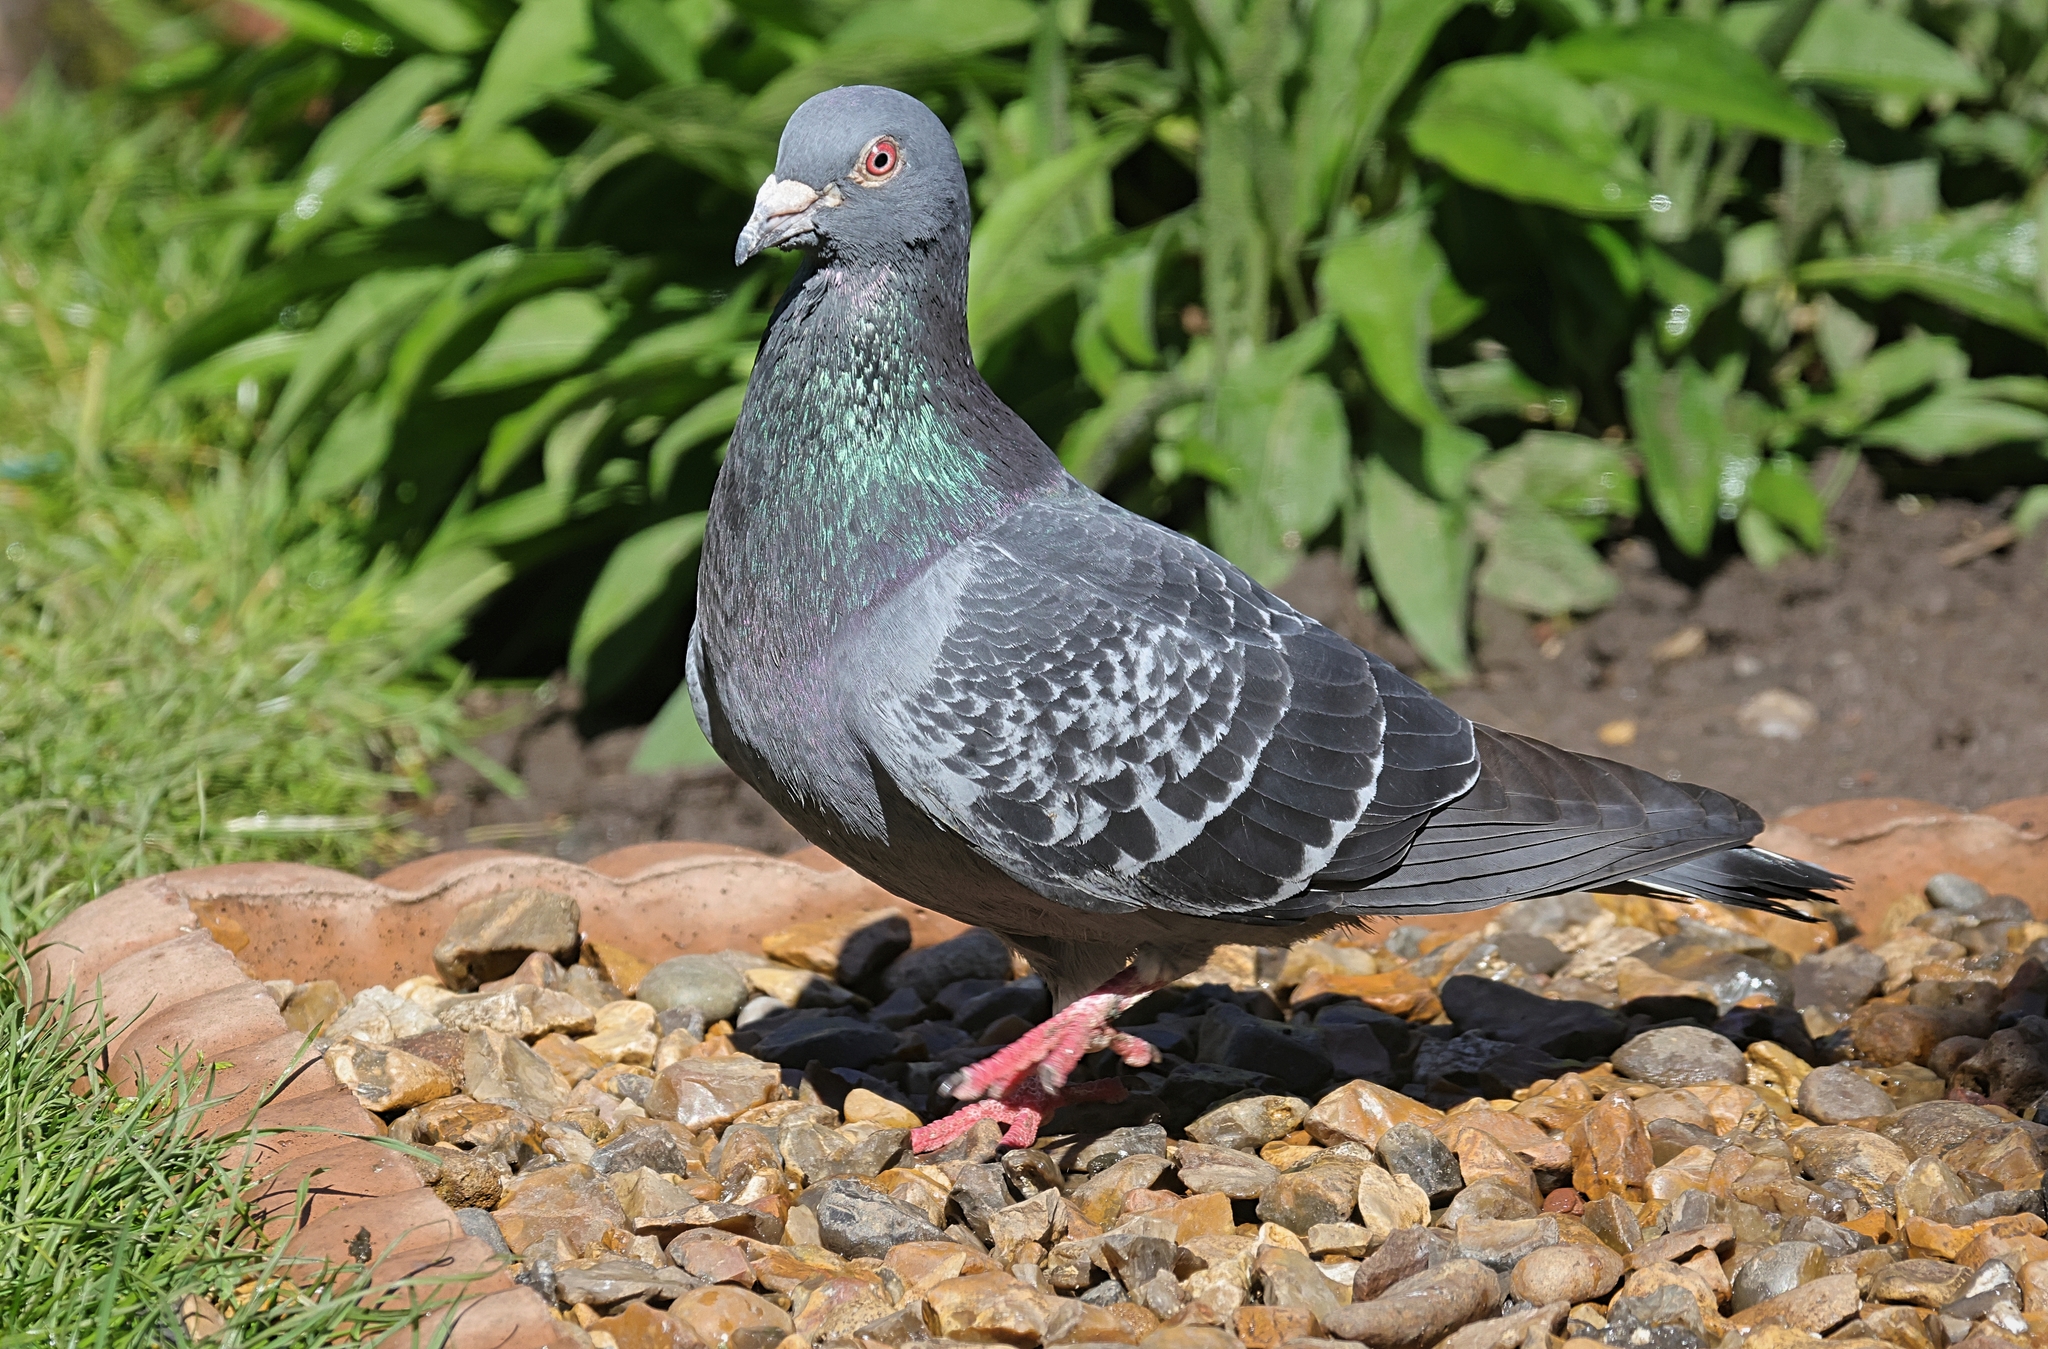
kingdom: Animalia
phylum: Chordata
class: Aves
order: Columbiformes
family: Columbidae
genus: Columba
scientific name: Columba livia
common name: Rock pigeon
